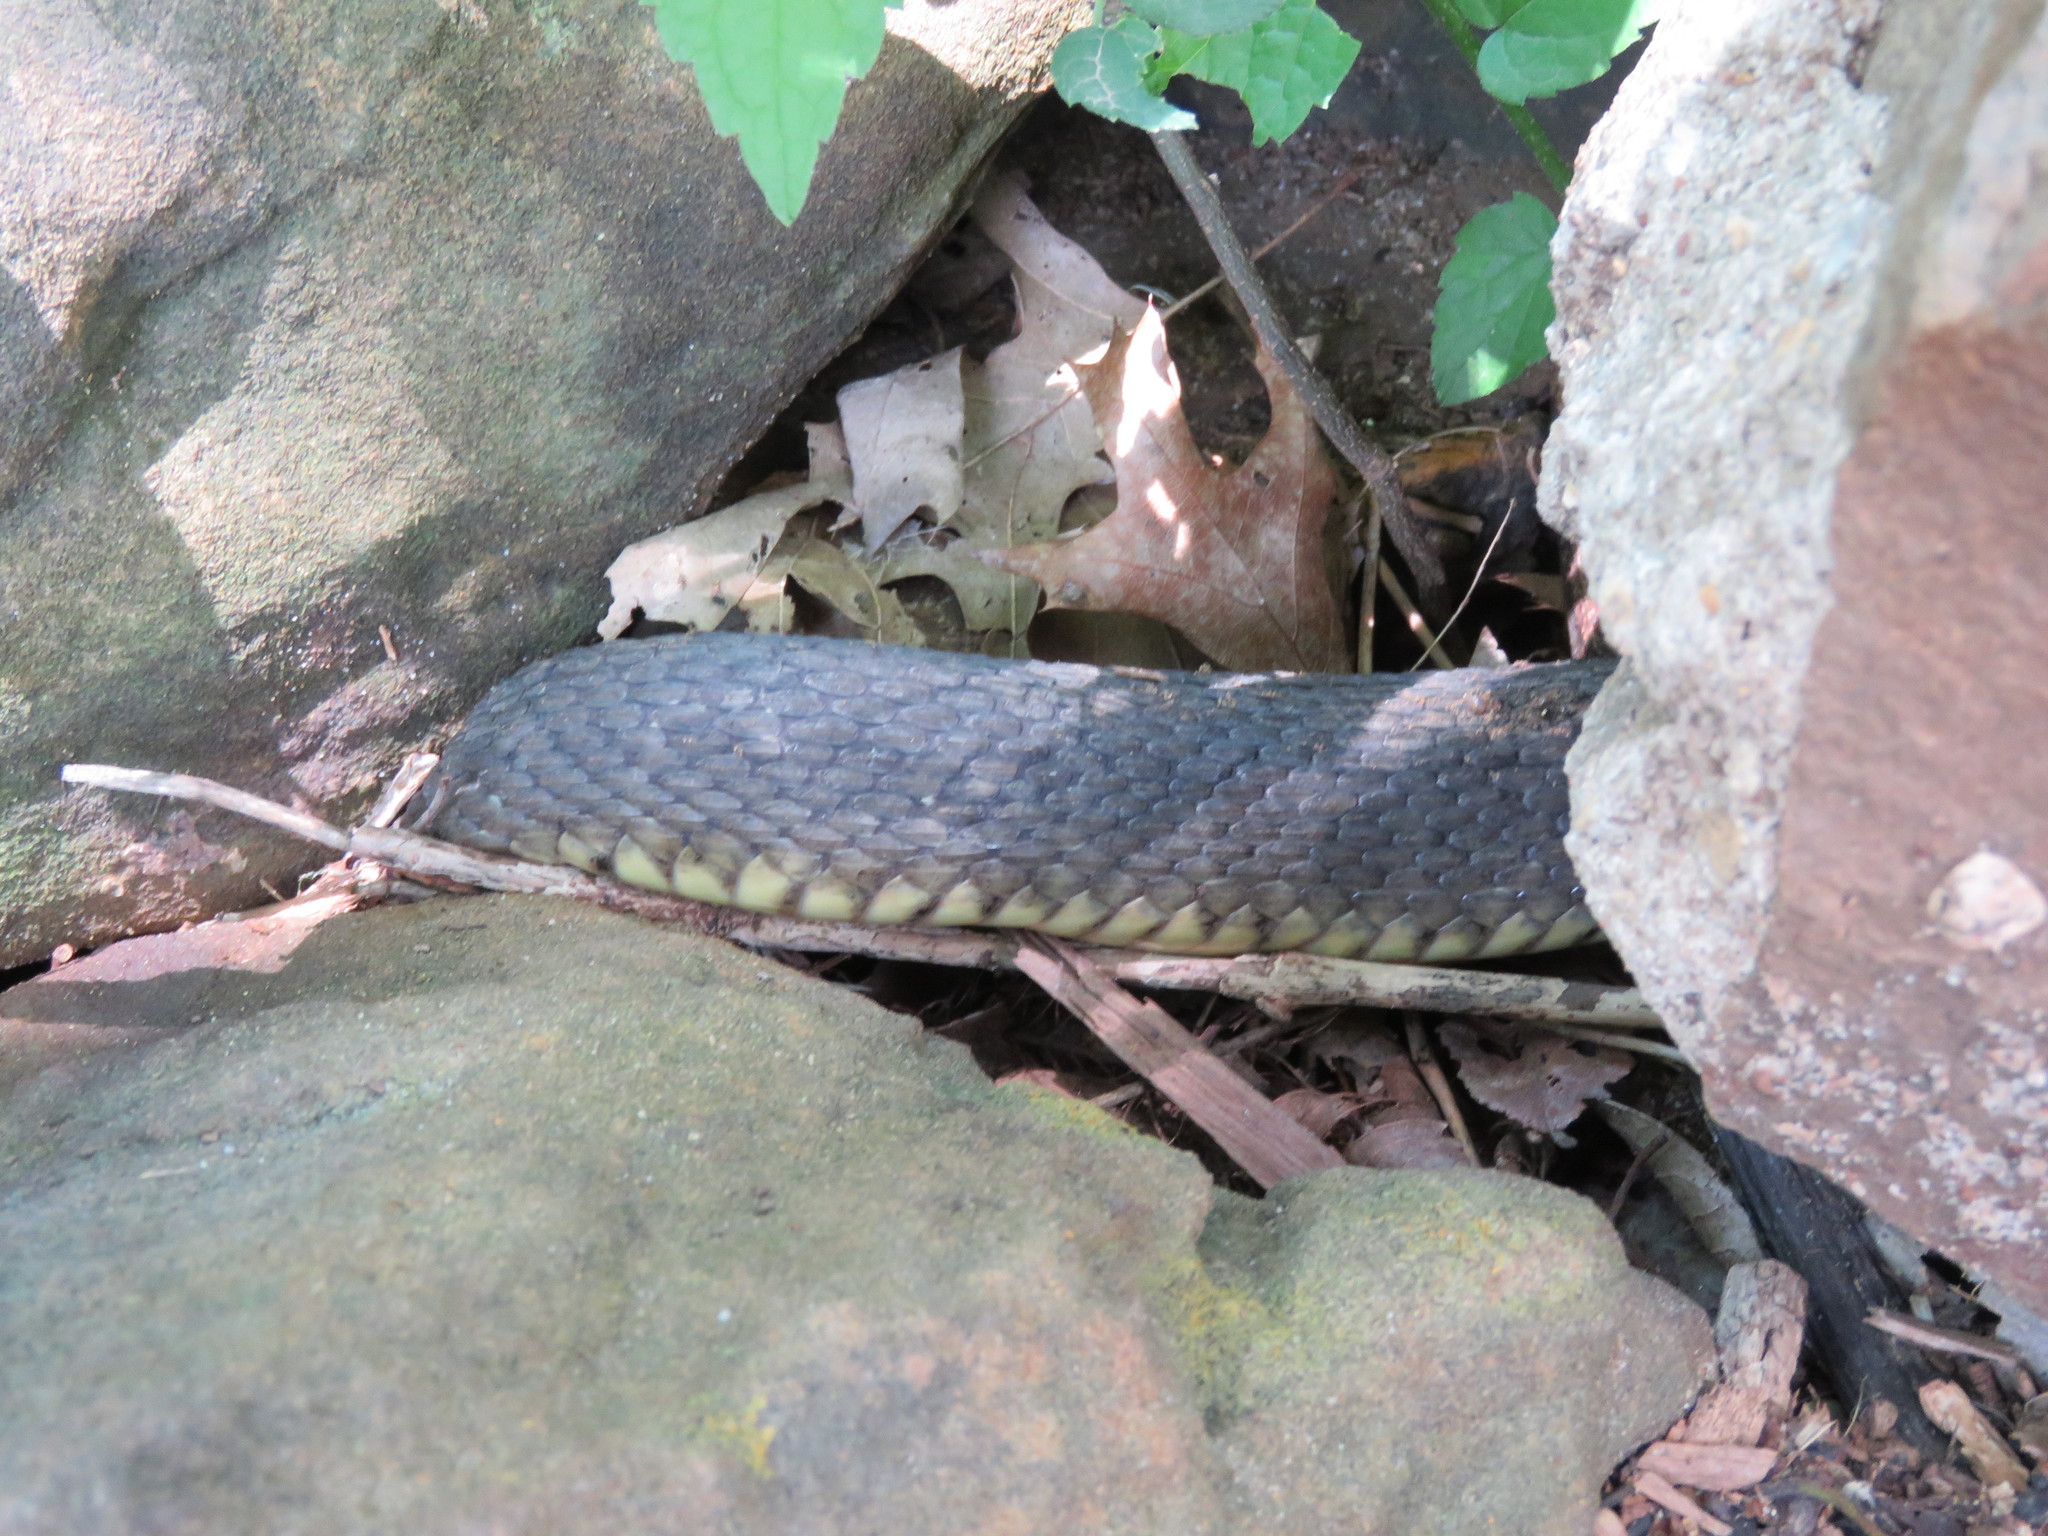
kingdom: Animalia
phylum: Chordata
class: Squamata
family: Colubridae
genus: Nerodia
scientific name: Nerodia erythrogaster
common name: Plainbelly water snake
